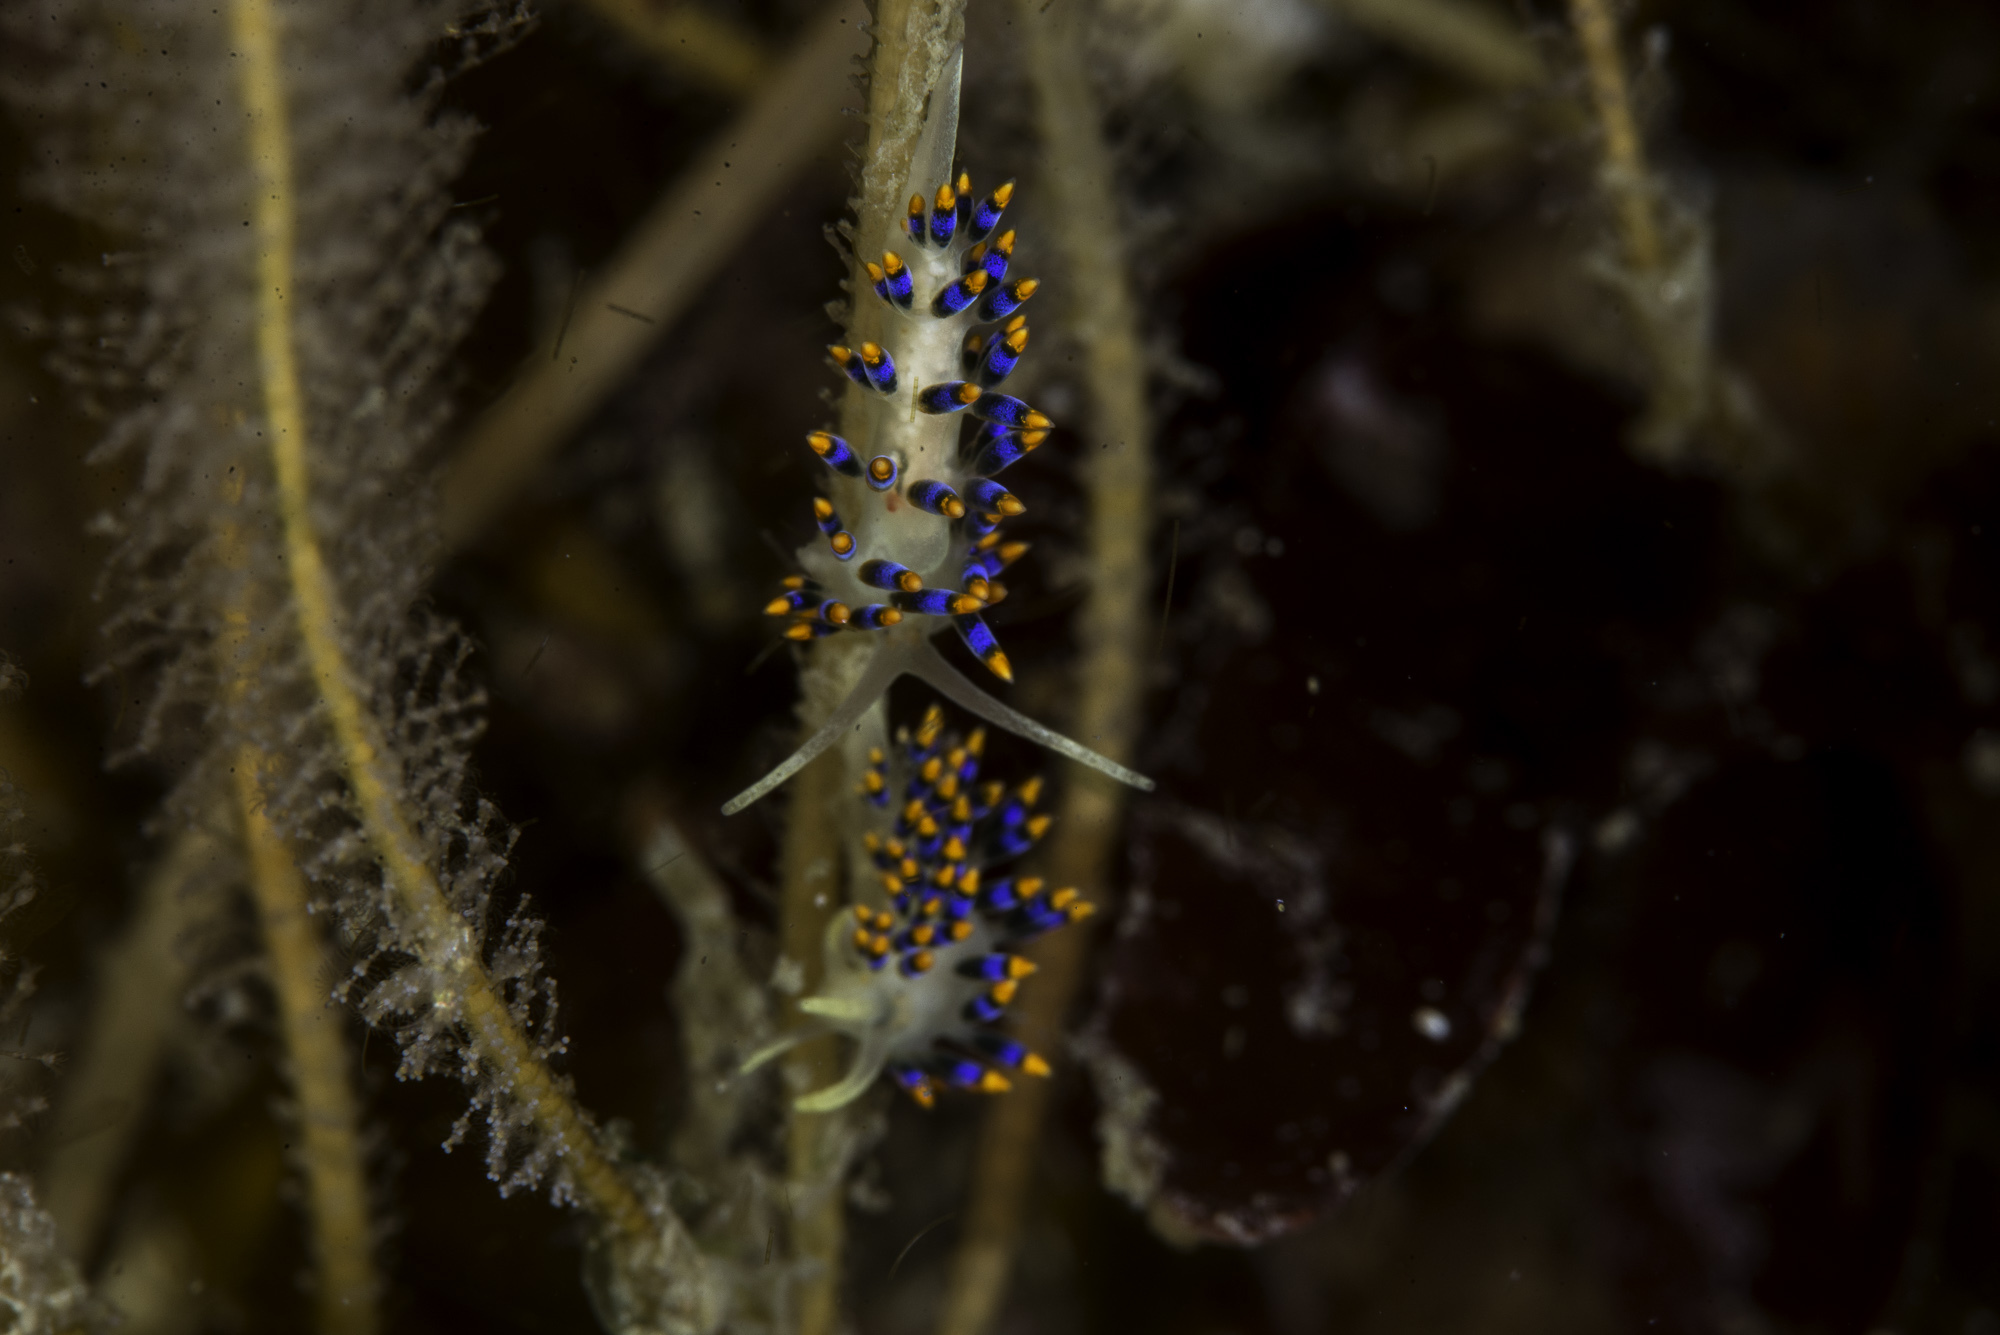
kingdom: Animalia
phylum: Mollusca
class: Gastropoda
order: Nudibranchia
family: Trinchesiidae
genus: Trinchesia
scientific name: Trinchesia cuanensis
